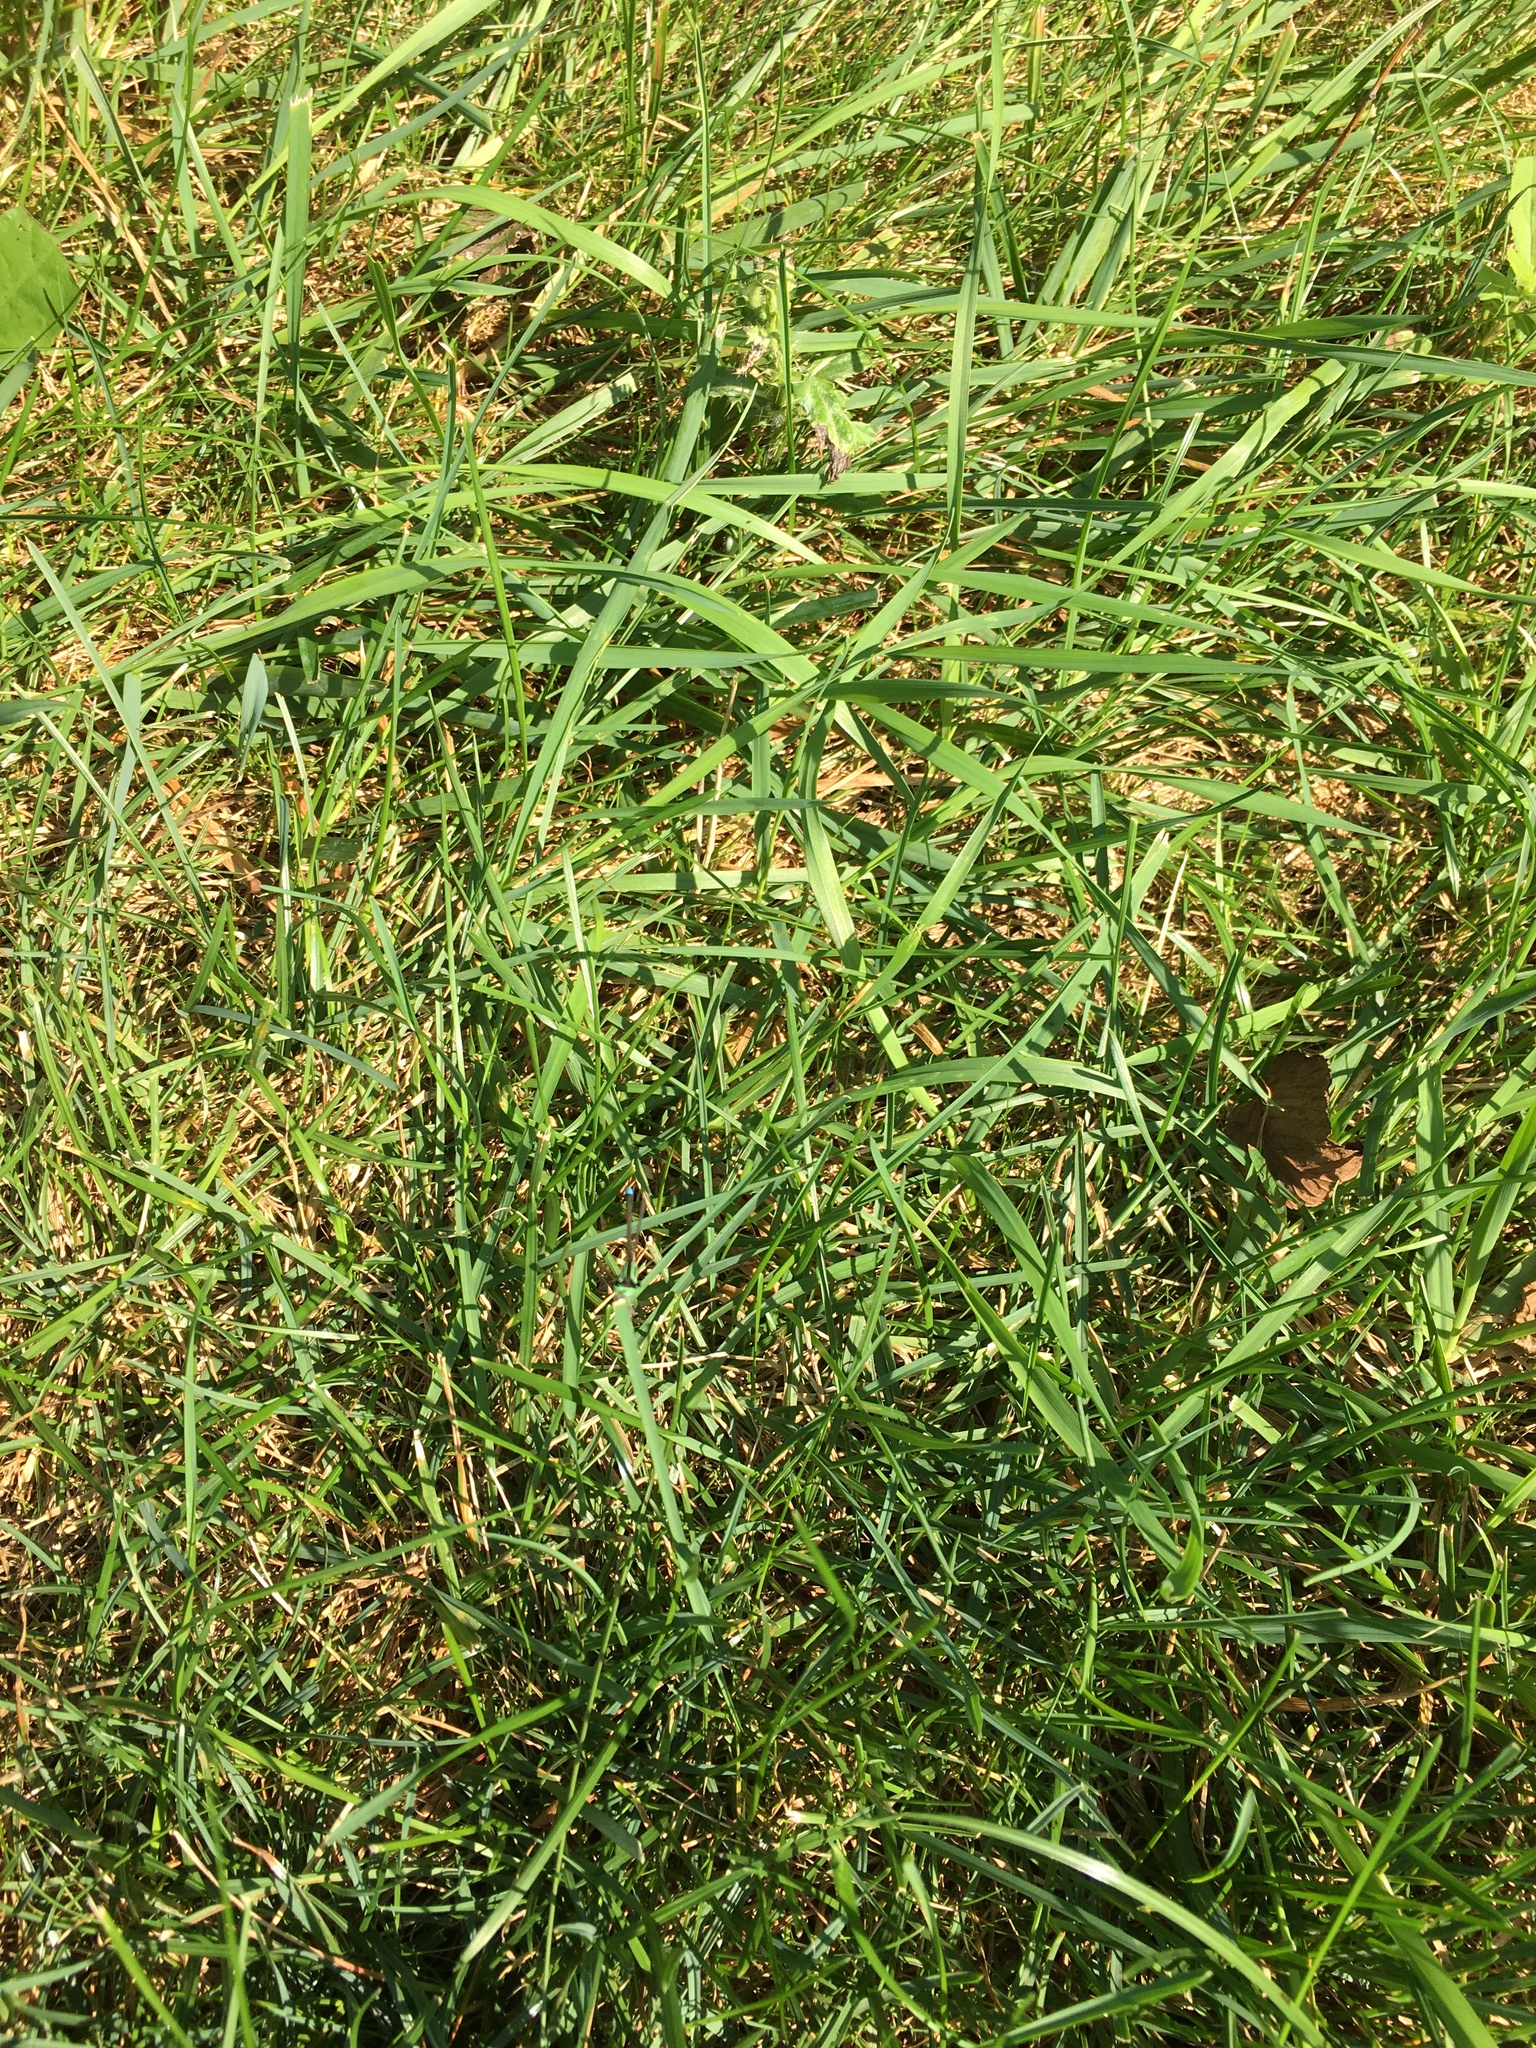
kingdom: Animalia
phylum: Arthropoda
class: Insecta
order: Odonata
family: Coenagrionidae
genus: Ischnura
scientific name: Ischnura verticalis
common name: Eastern forktail
